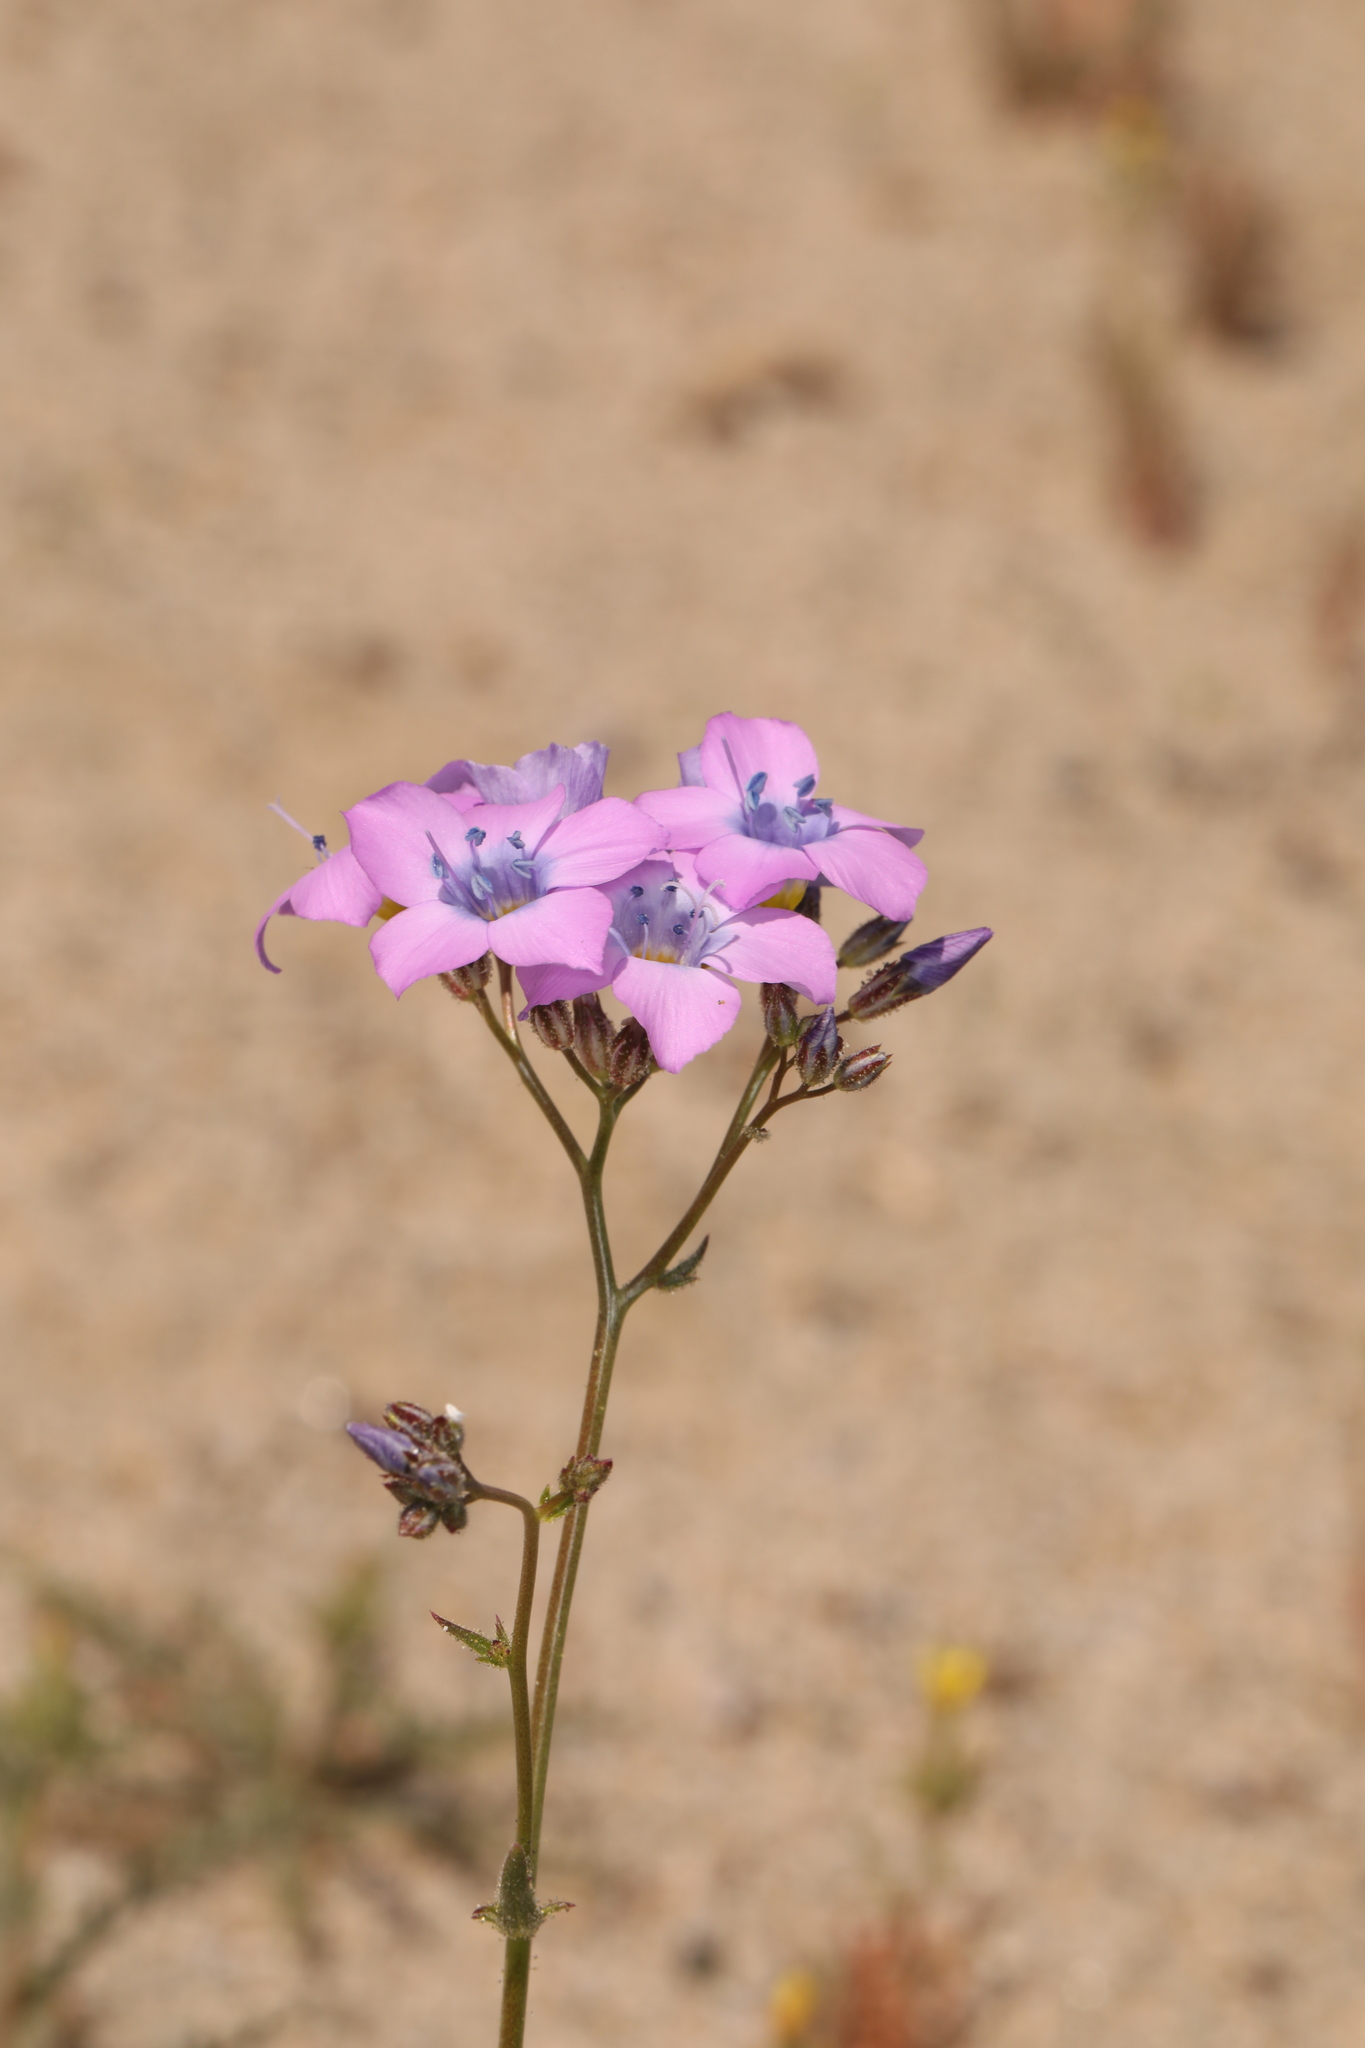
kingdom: Plantae
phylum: Tracheophyta
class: Magnoliopsida
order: Ericales
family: Polemoniaceae
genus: Gilia
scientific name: Gilia cana
